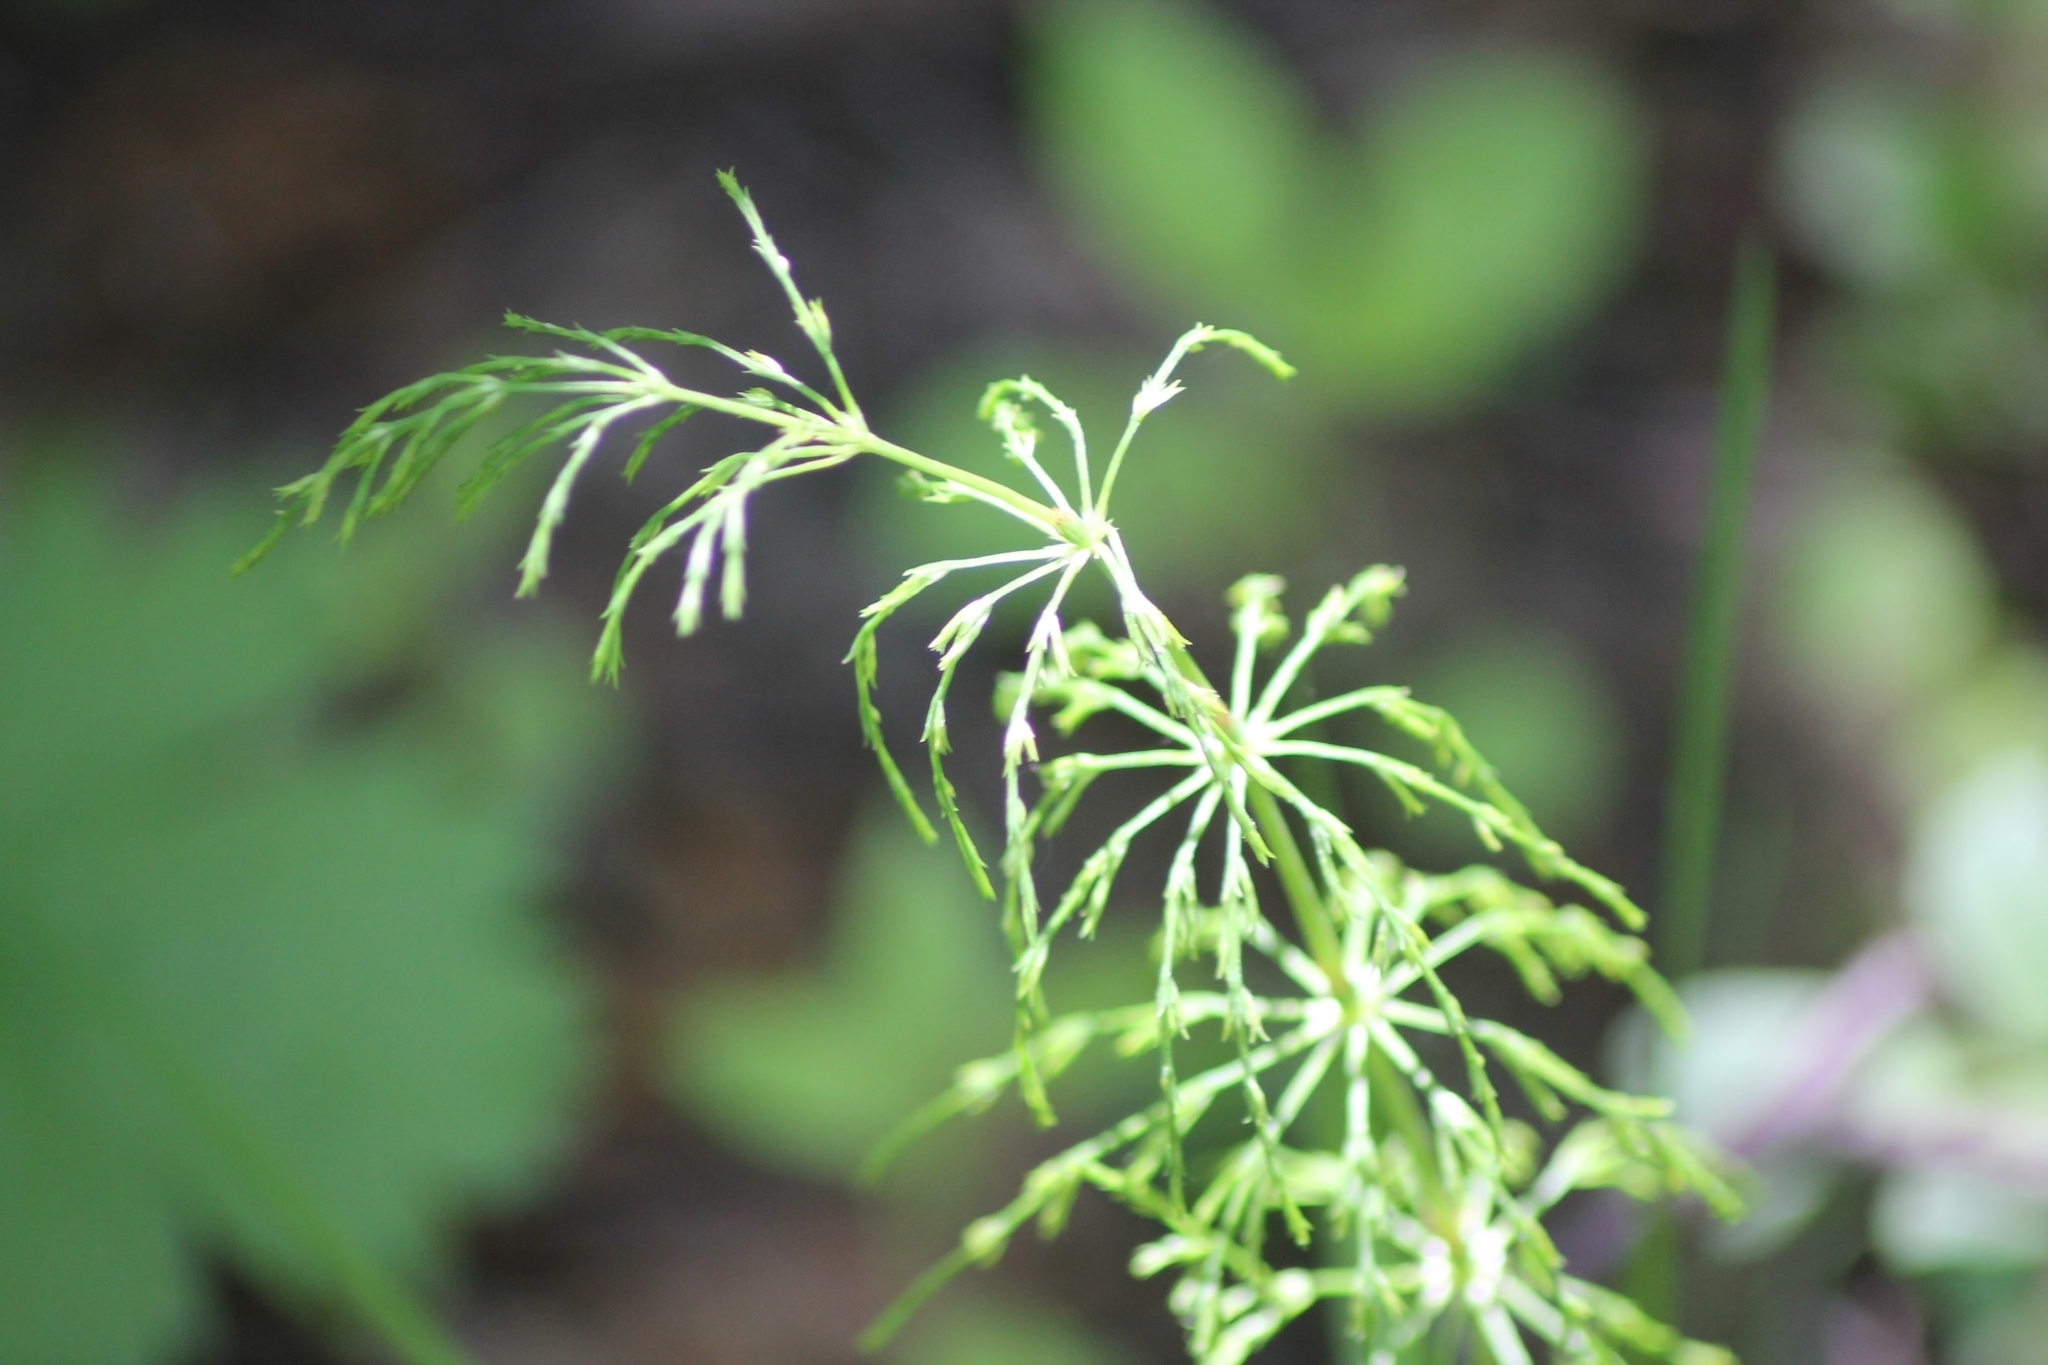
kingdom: Plantae
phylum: Tracheophyta
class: Polypodiopsida
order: Equisetales
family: Equisetaceae
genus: Equisetum
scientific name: Equisetum sylvaticum
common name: Wood horsetail
